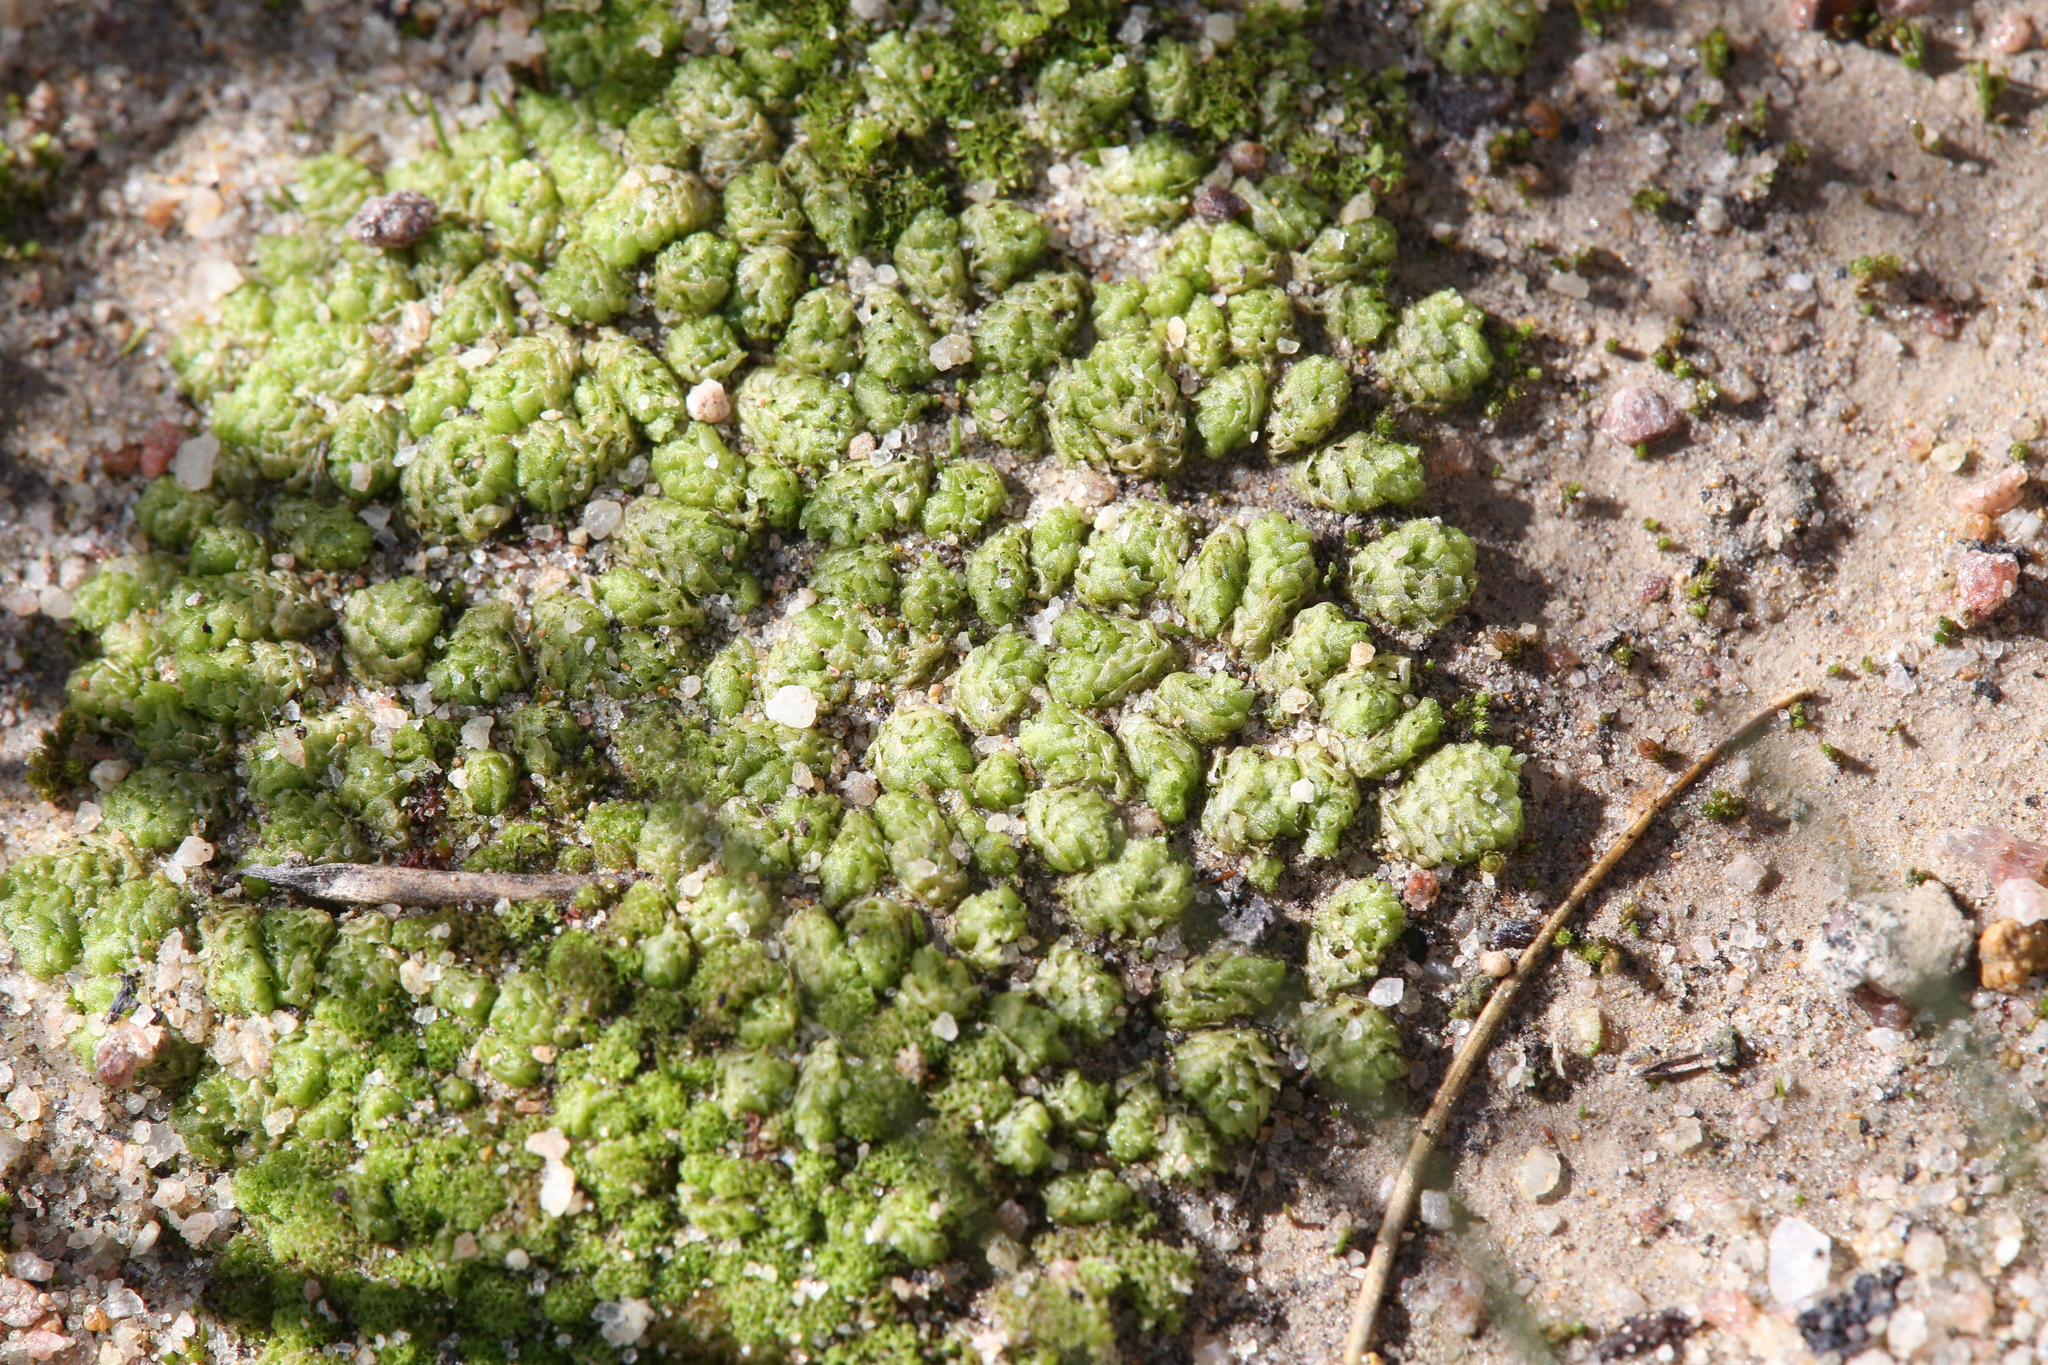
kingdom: Plantae
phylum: Marchantiophyta
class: Jungermanniopsida
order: Fossombroniales
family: Fossombroniaceae
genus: Fossombronia
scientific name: Fossombronia intestinalis
